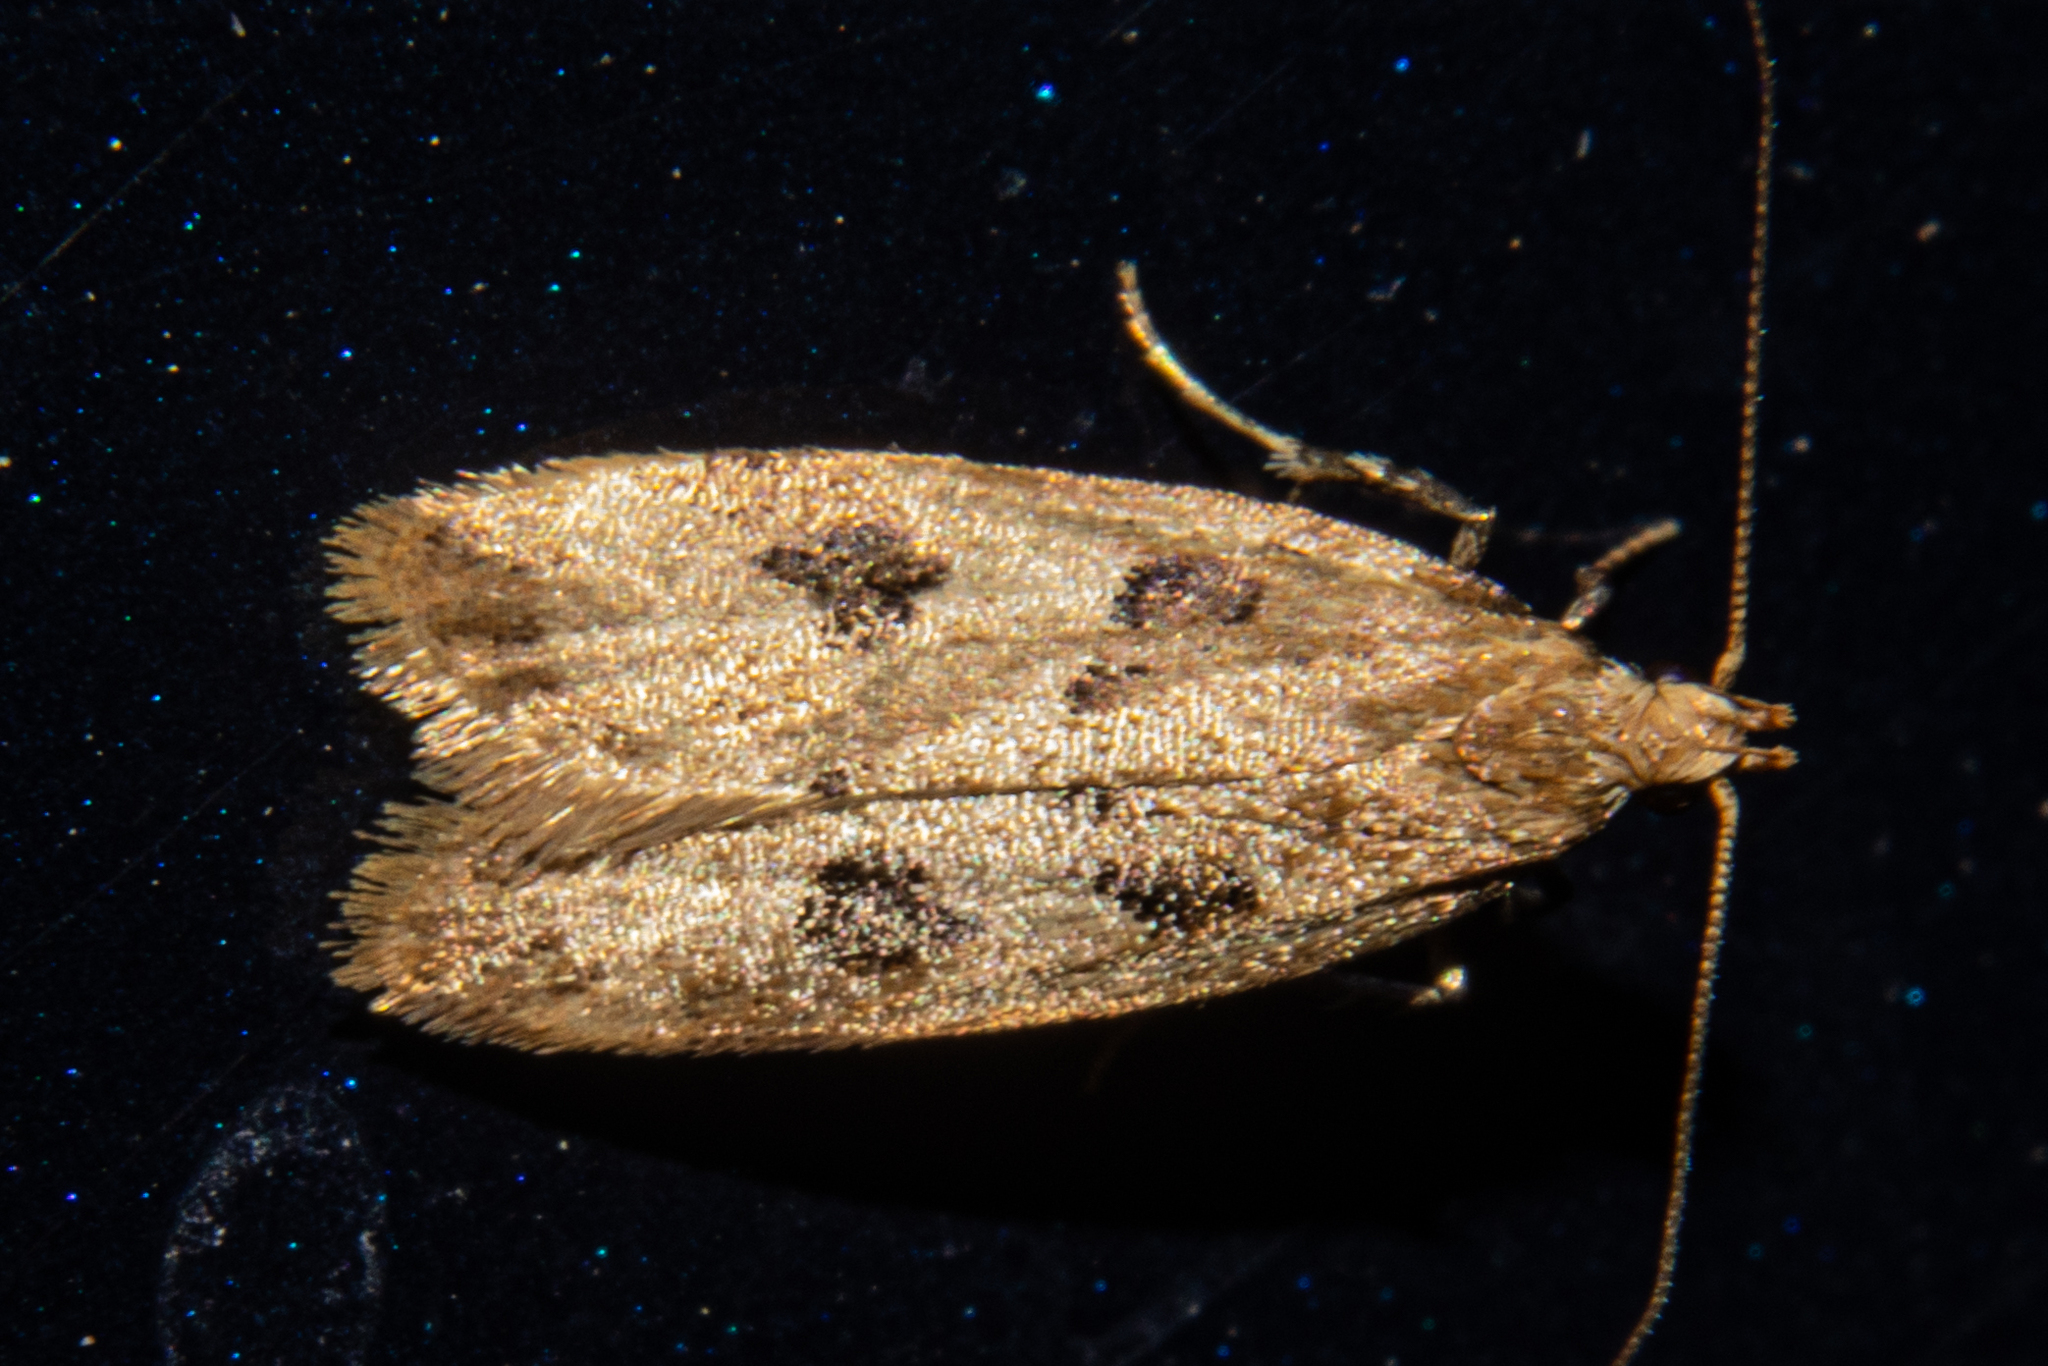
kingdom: Animalia
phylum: Arthropoda
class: Insecta
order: Lepidoptera
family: Oecophoridae
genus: Thamnosara
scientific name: Thamnosara sublitella
